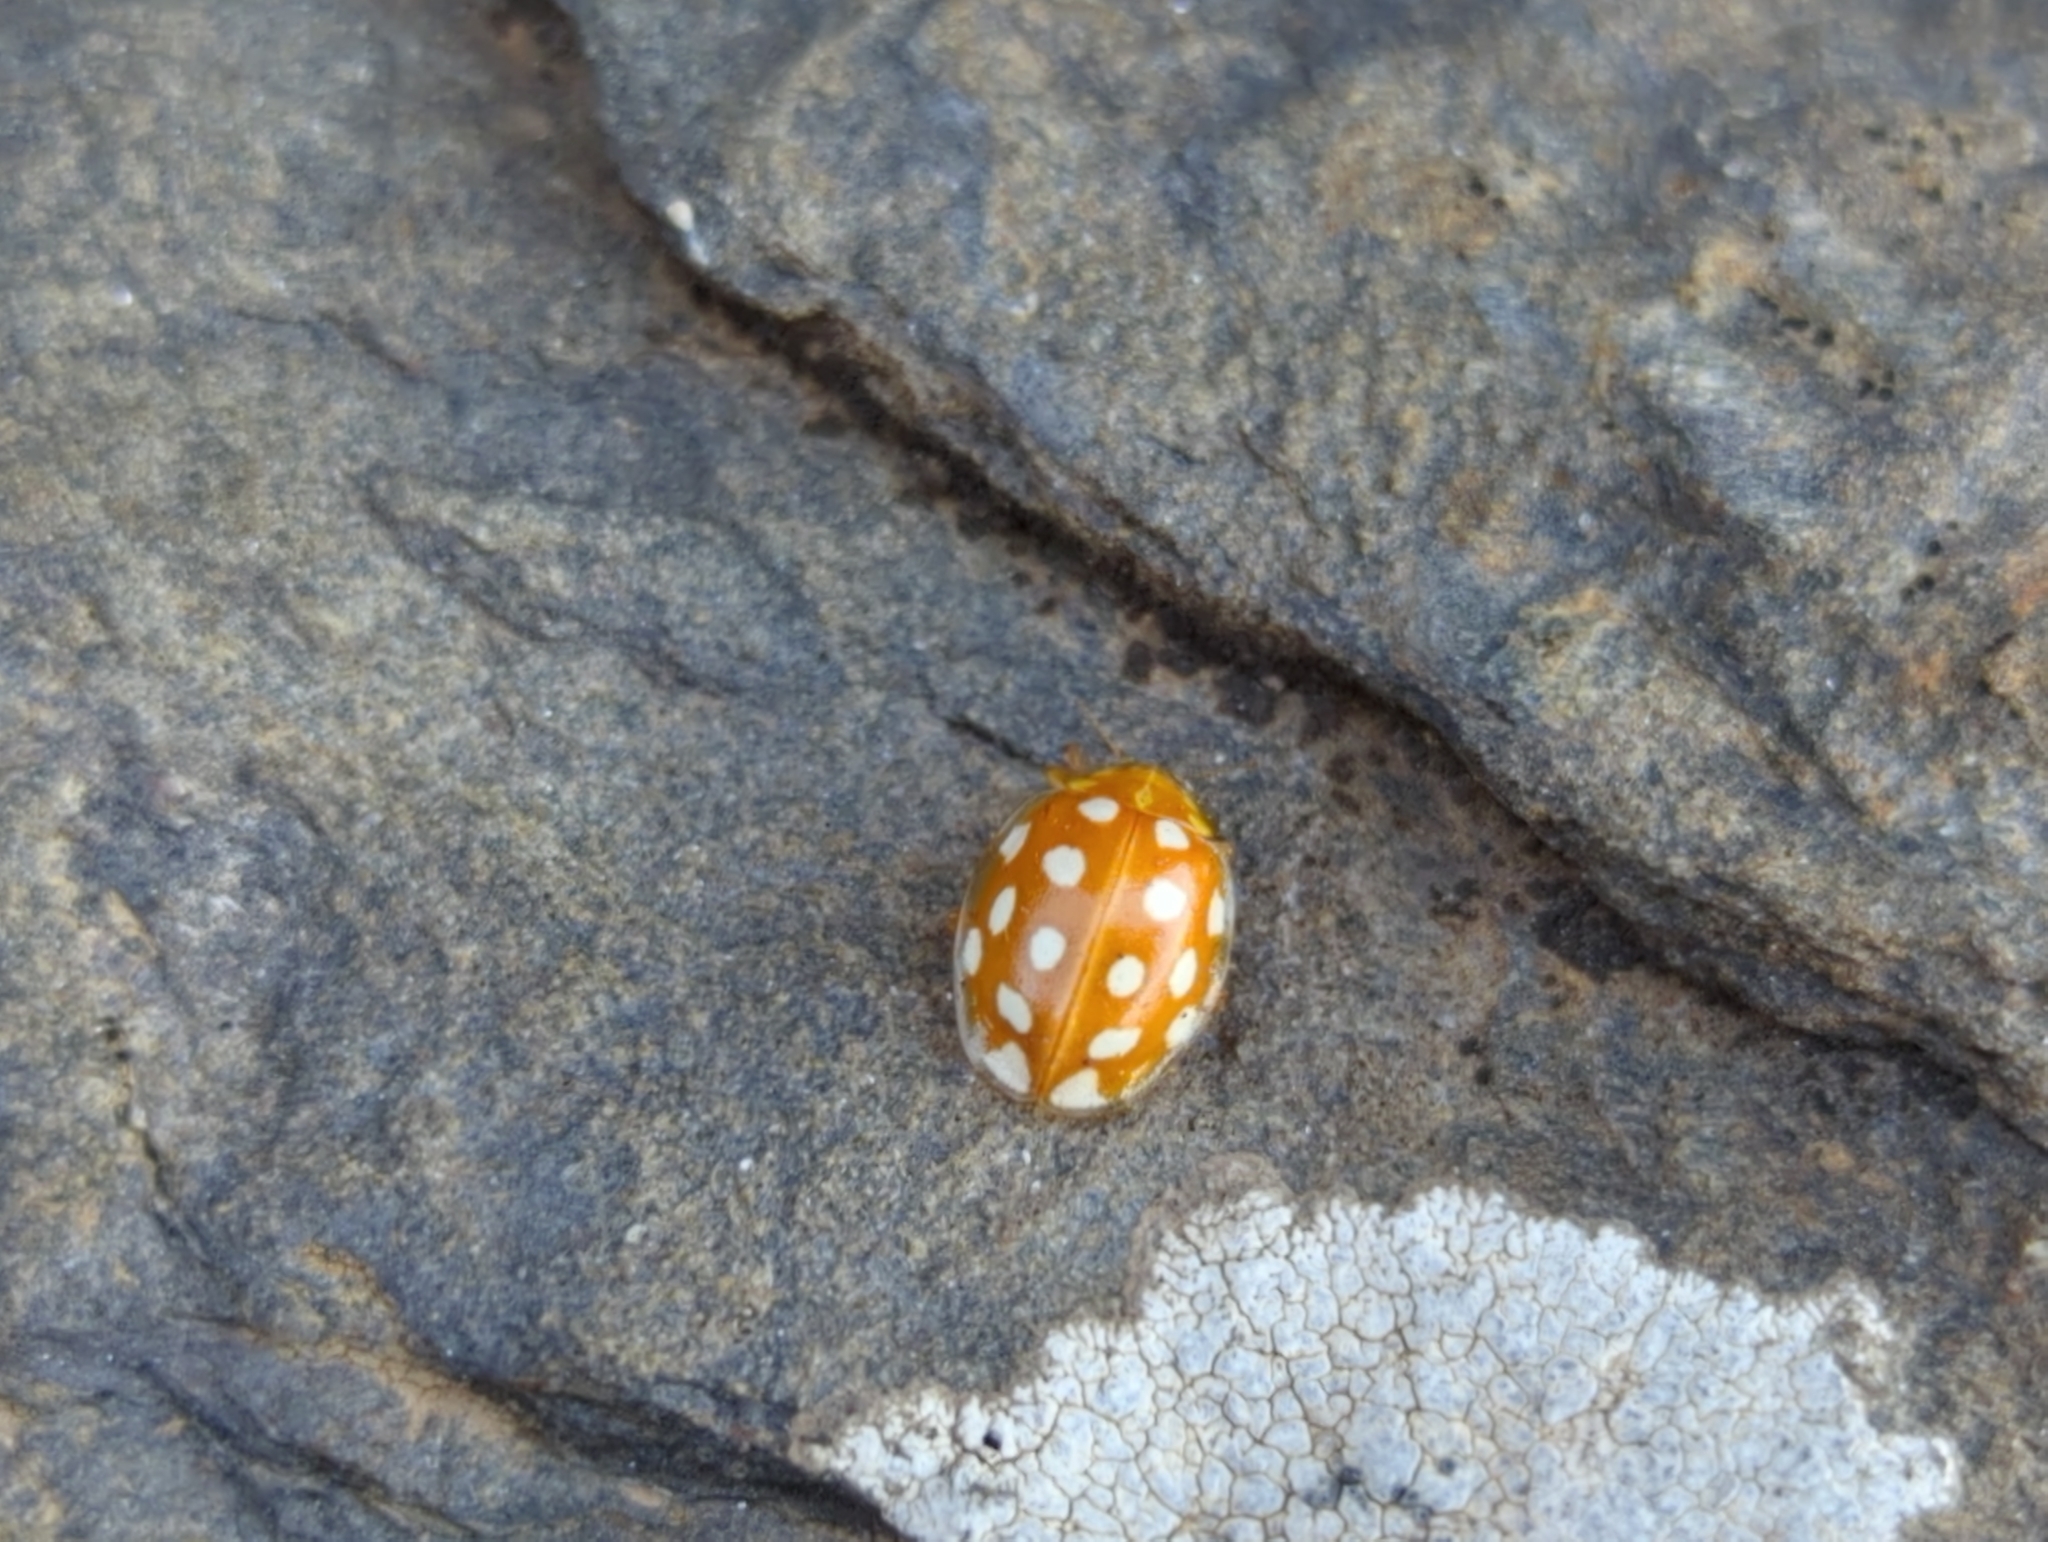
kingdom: Animalia
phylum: Arthropoda
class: Insecta
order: Coleoptera
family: Coccinellidae
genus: Halyzia
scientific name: Halyzia sedecimguttata
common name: Orange ladybird
